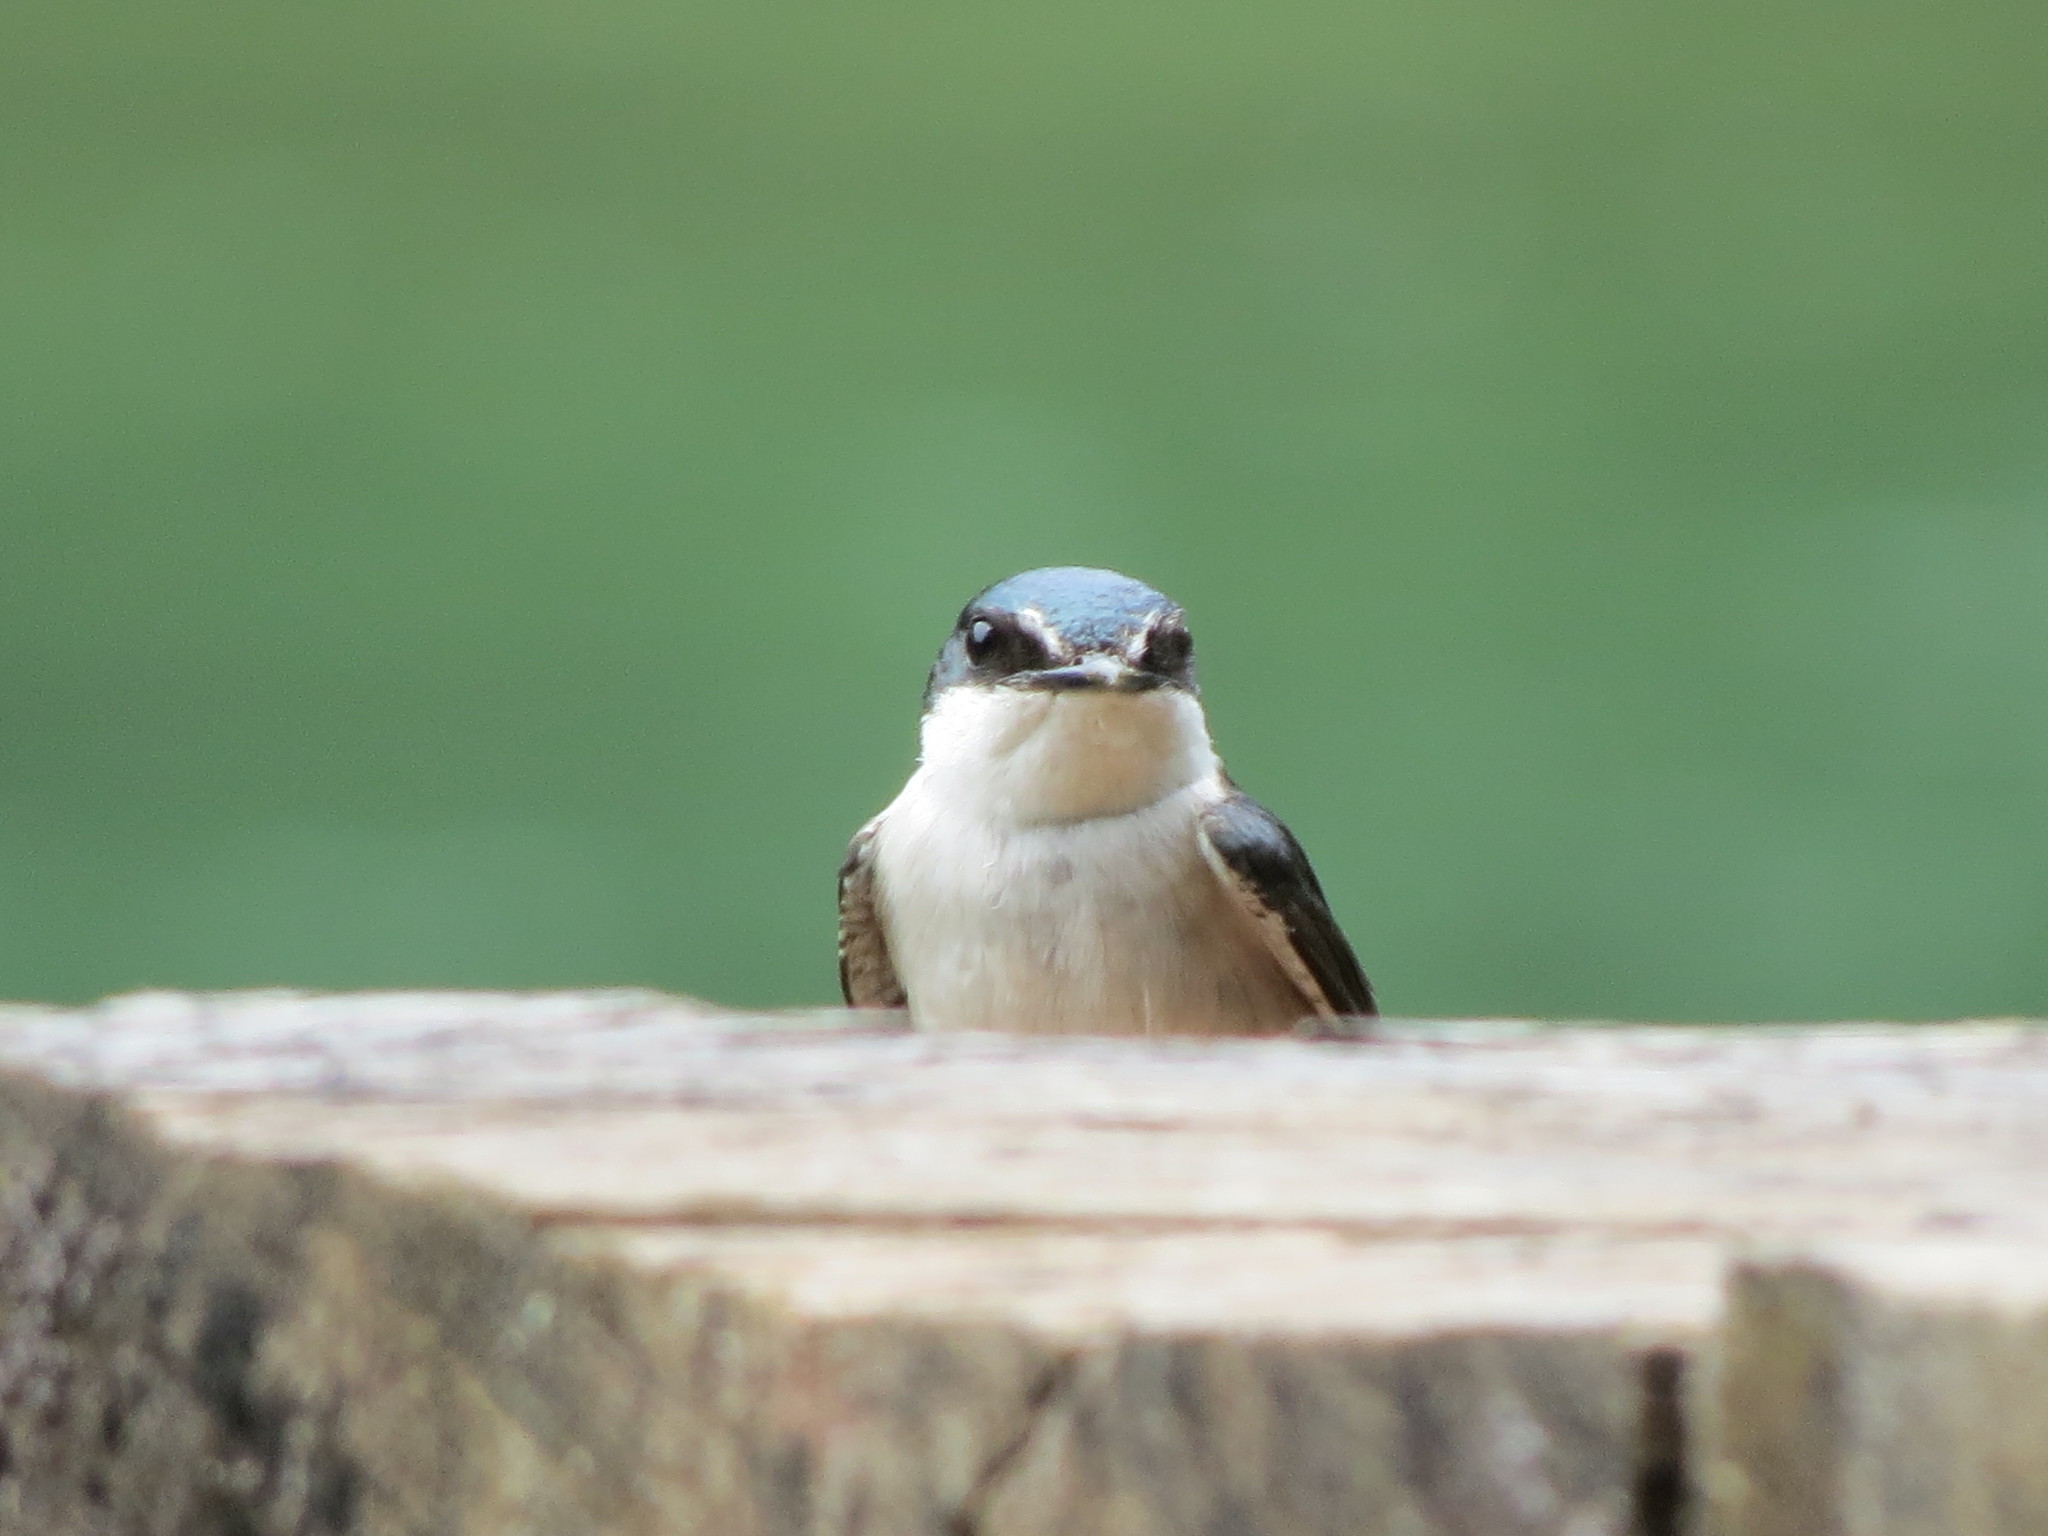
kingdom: Animalia
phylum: Chordata
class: Aves
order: Passeriformes
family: Hirundinidae
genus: Tachycineta
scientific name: Tachycineta albilinea
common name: Mangrove swallow
